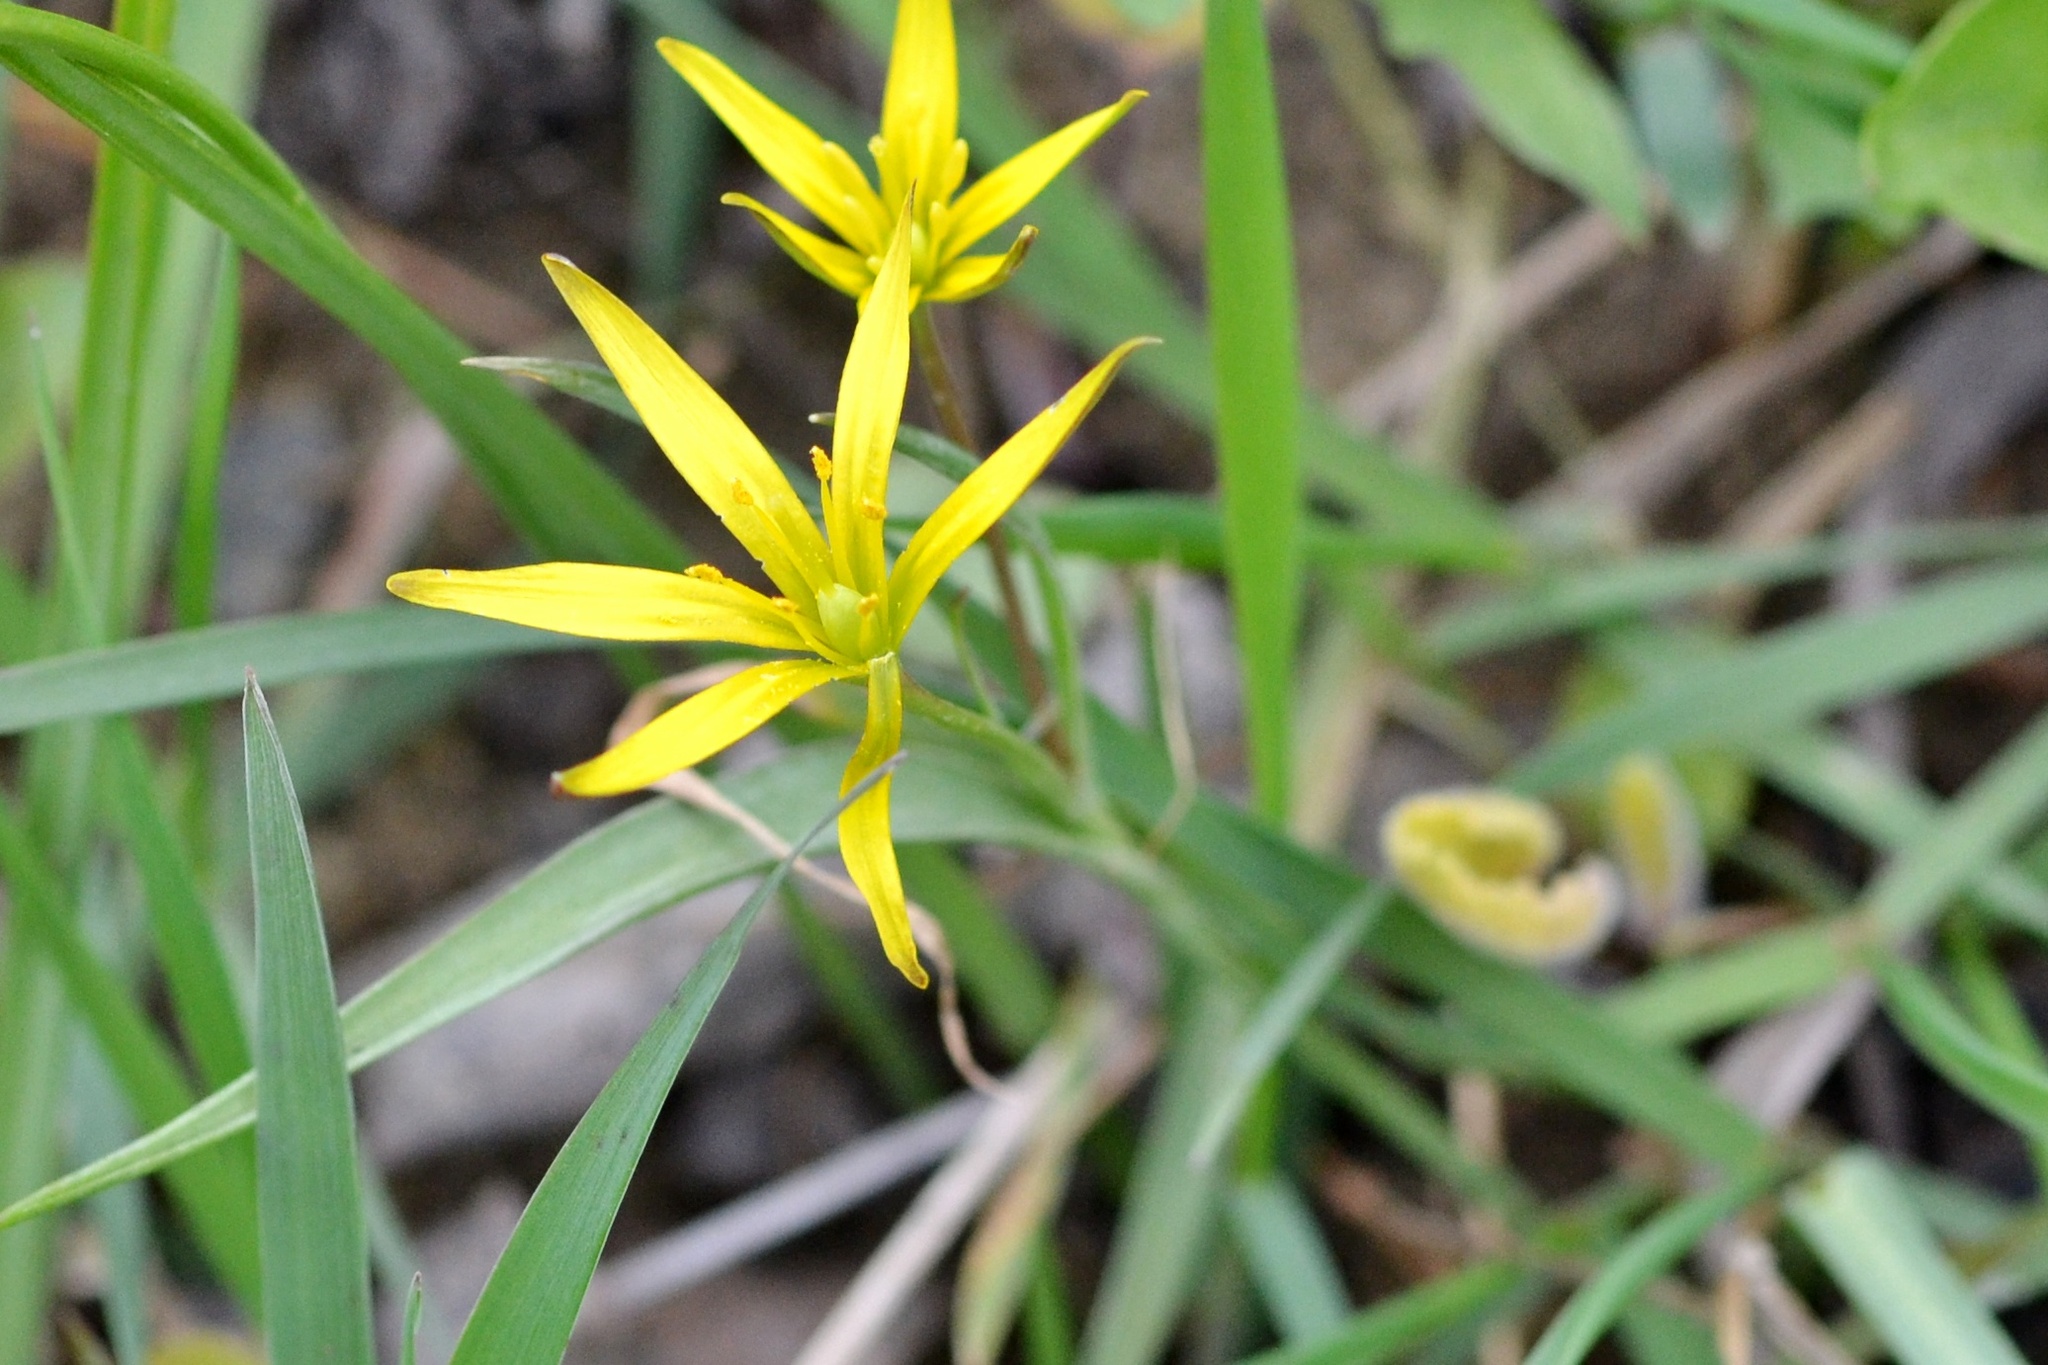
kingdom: Plantae
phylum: Tracheophyta
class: Liliopsida
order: Liliales
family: Liliaceae
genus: Gagea
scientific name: Gagea pratensis
